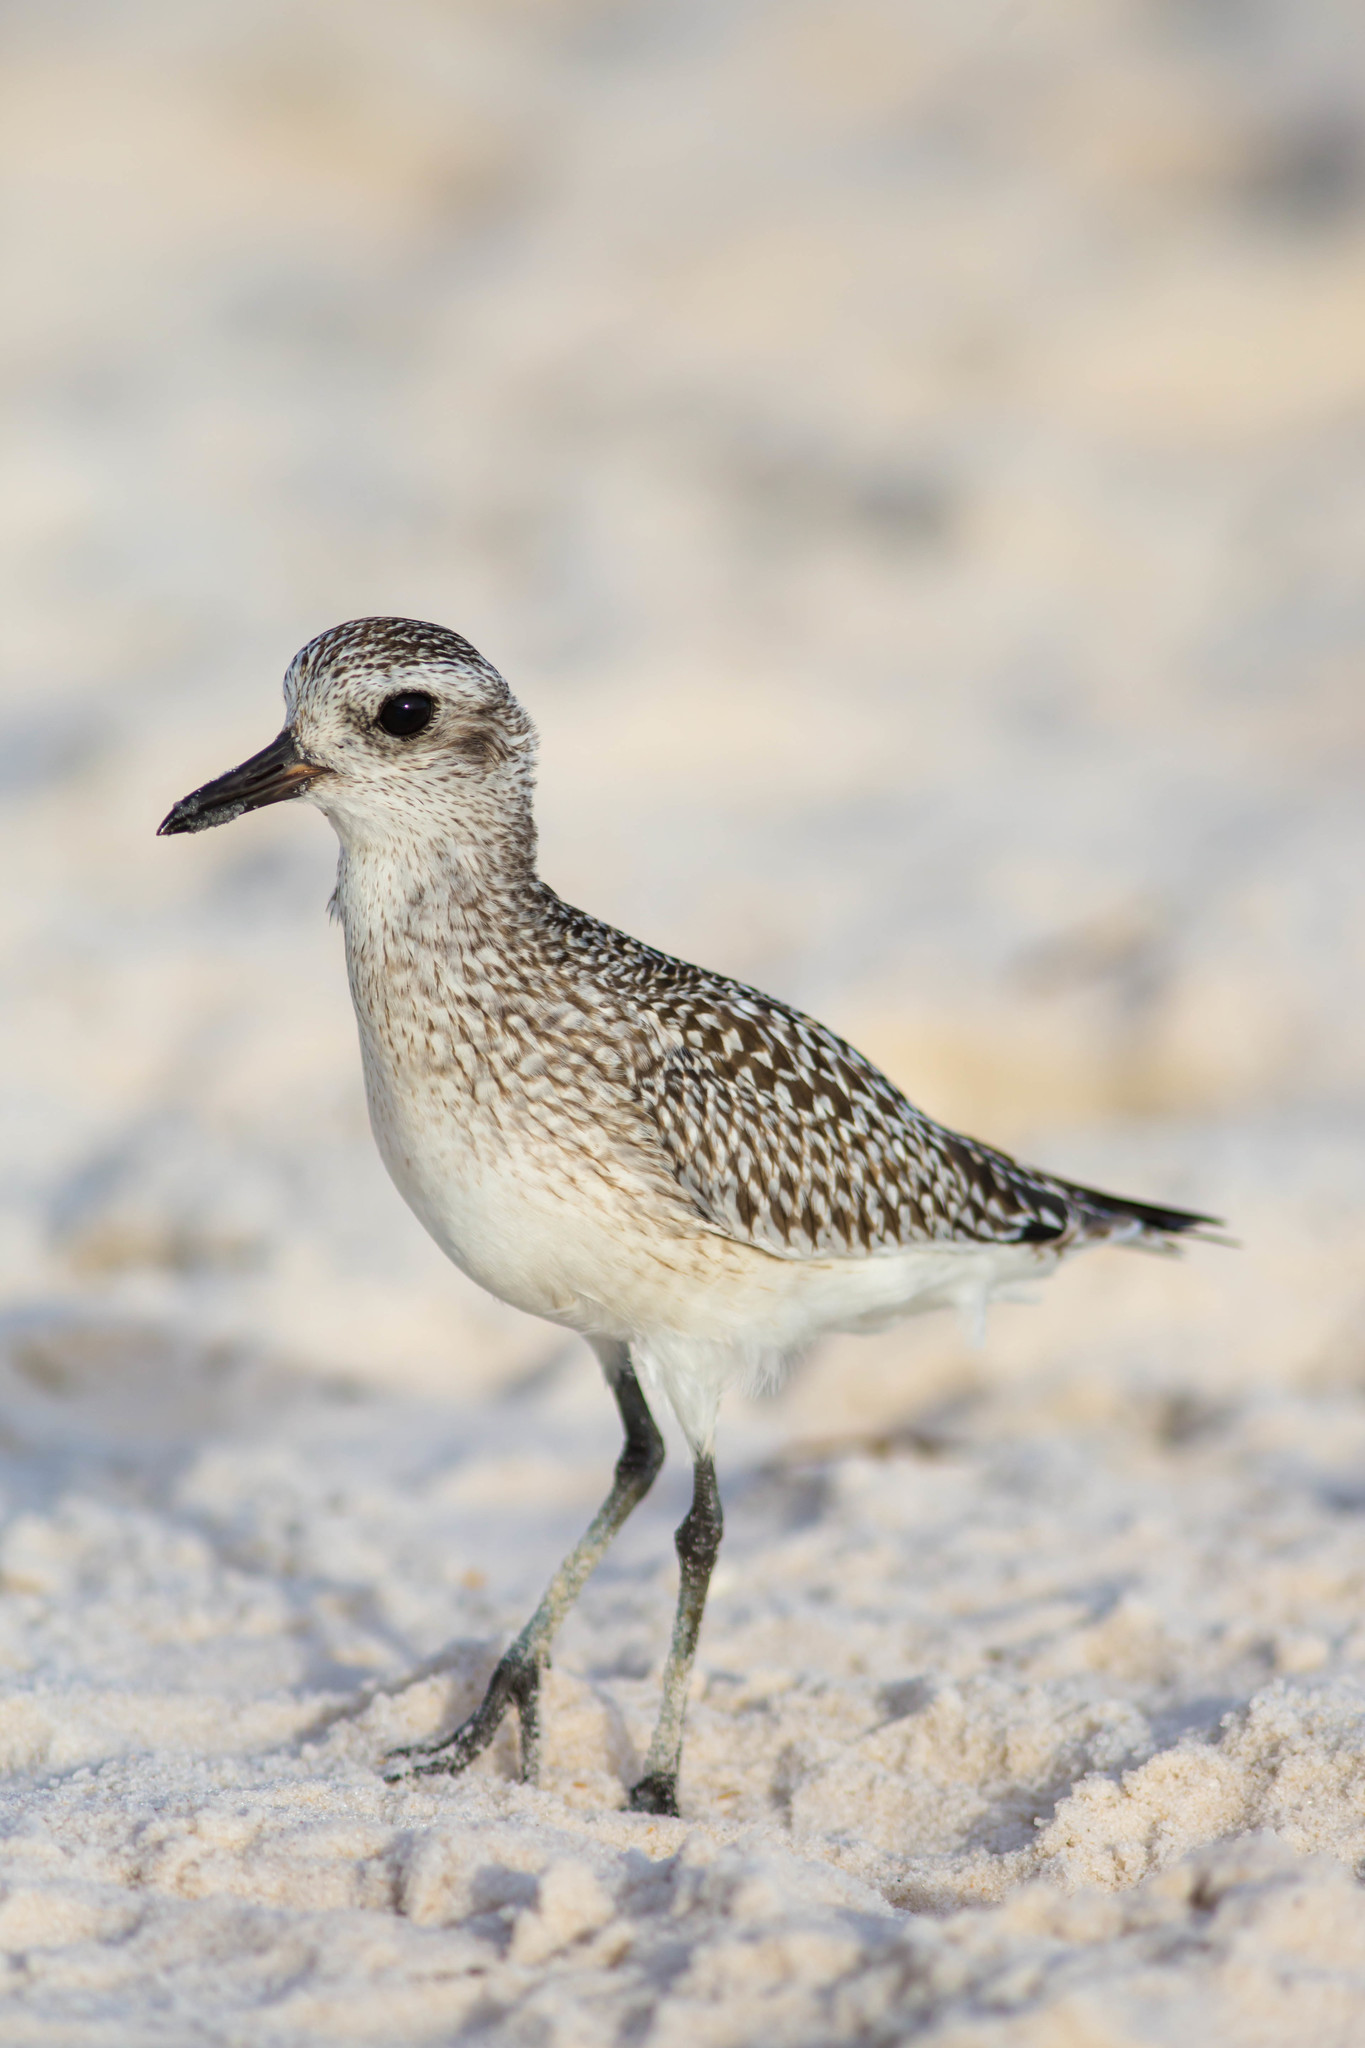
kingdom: Animalia
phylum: Chordata
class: Aves
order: Charadriiformes
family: Charadriidae
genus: Pluvialis
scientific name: Pluvialis squatarola
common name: Grey plover
